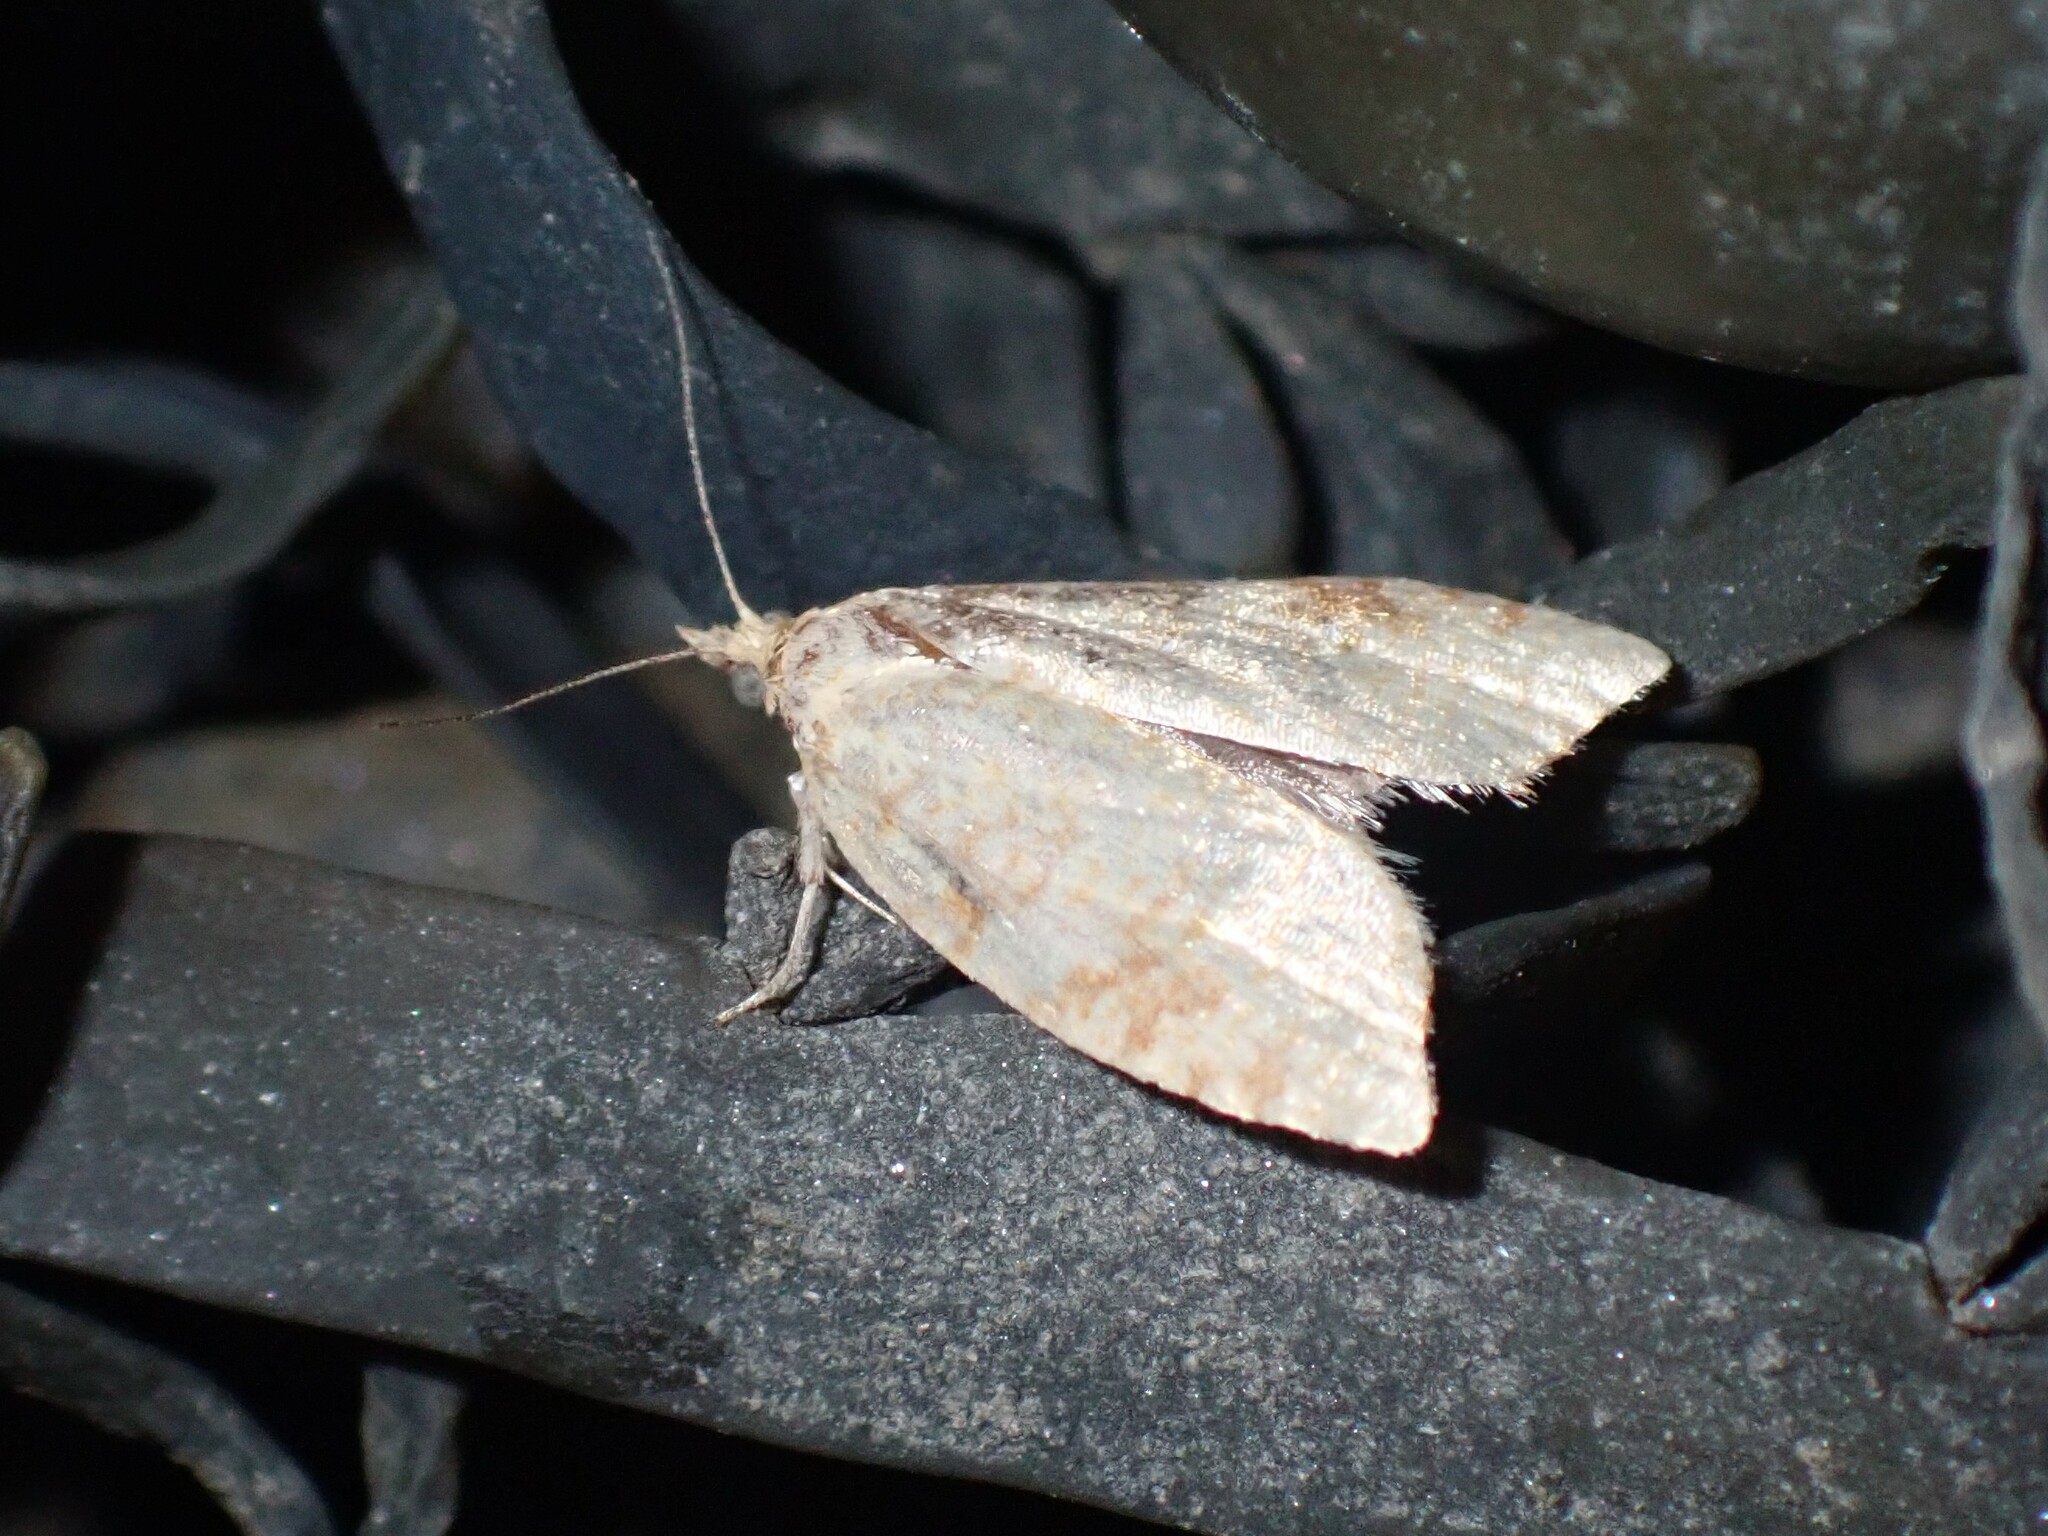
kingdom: Animalia
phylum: Arthropoda
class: Insecta
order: Lepidoptera
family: Tortricidae
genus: Aleimma
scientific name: Aleimma loeflingiana
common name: Yellow oak button
